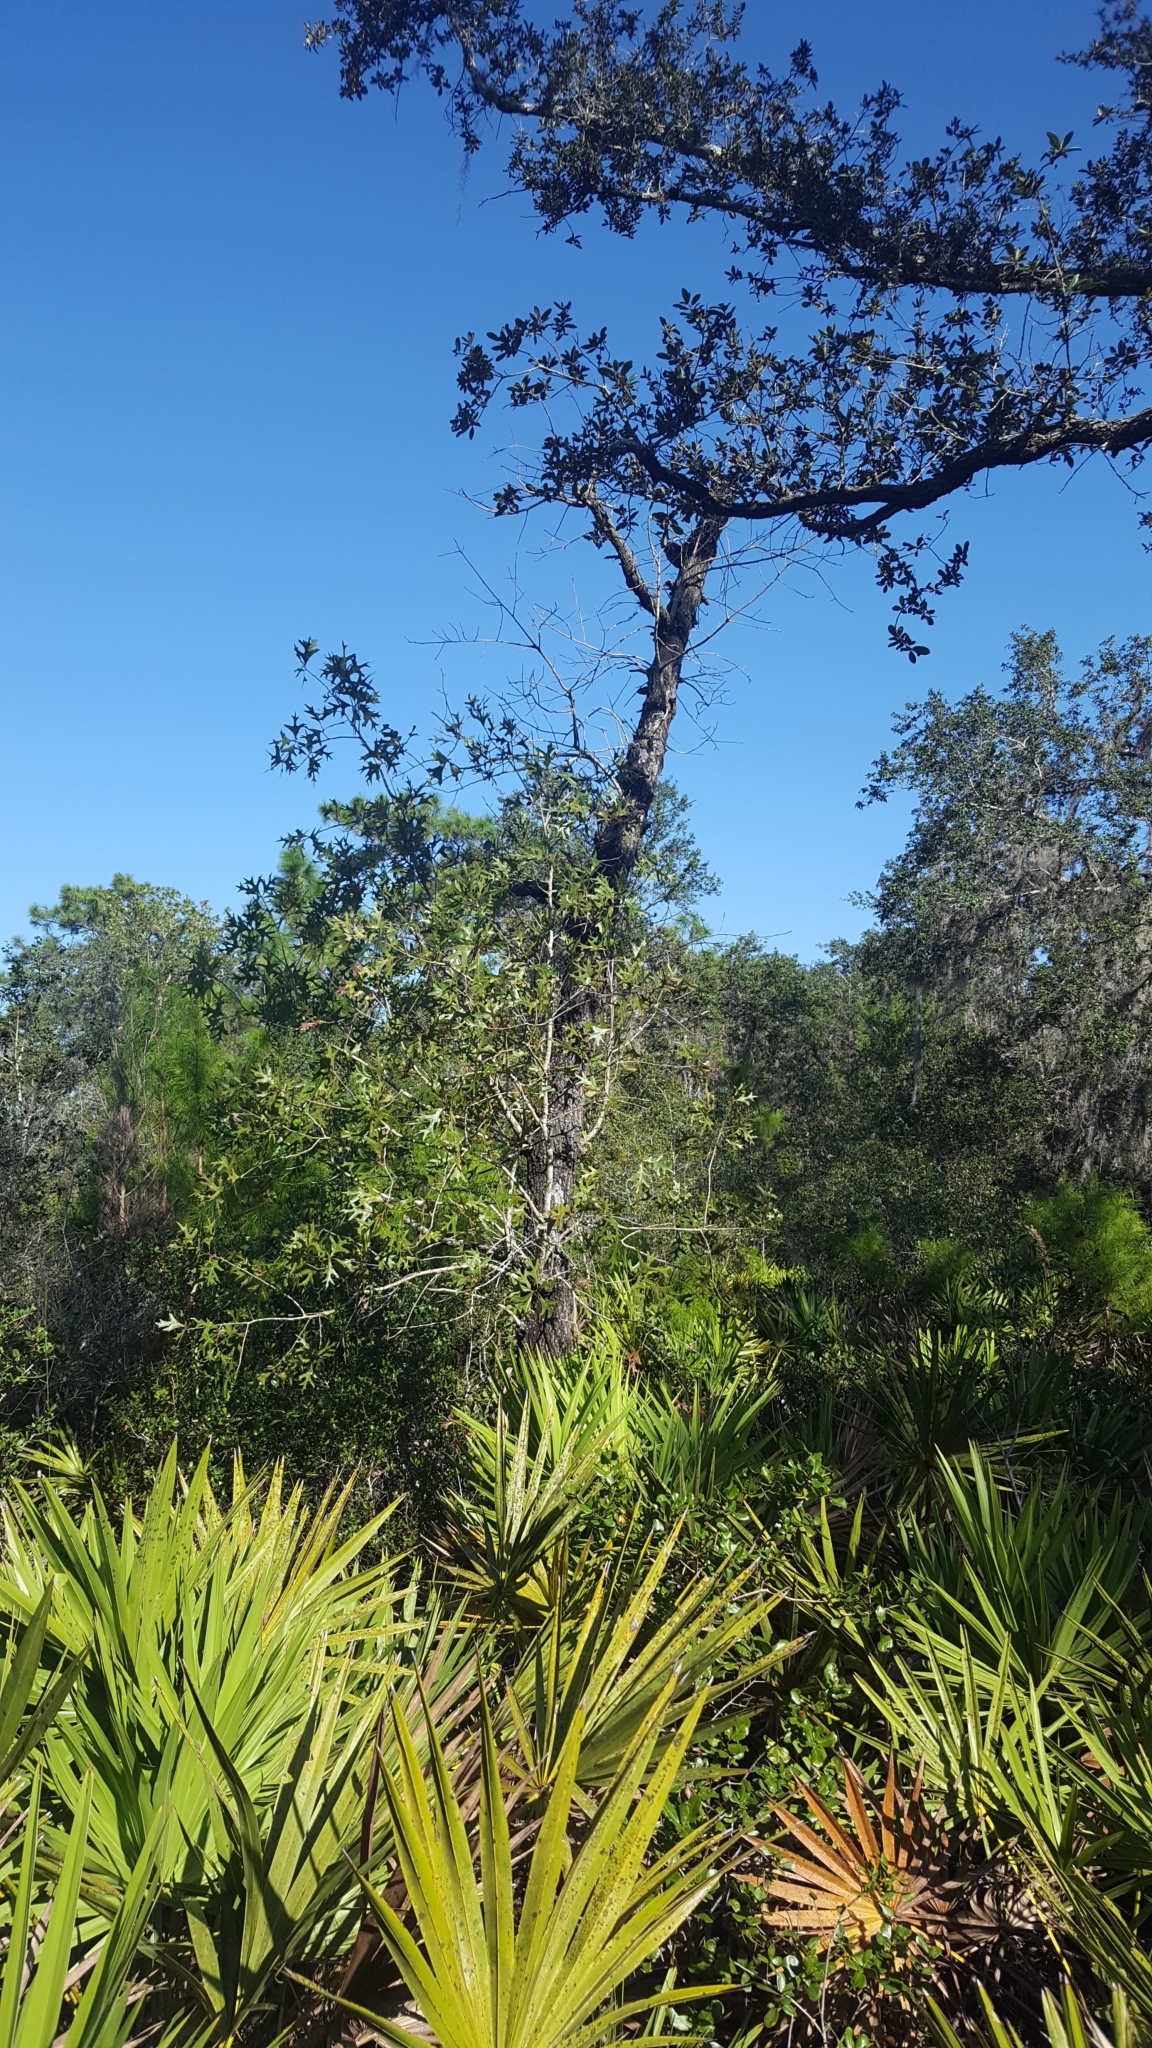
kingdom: Plantae
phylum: Tracheophyta
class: Magnoliopsida
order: Fagales
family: Fagaceae
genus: Quercus
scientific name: Quercus laevis
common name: Turkey oak
